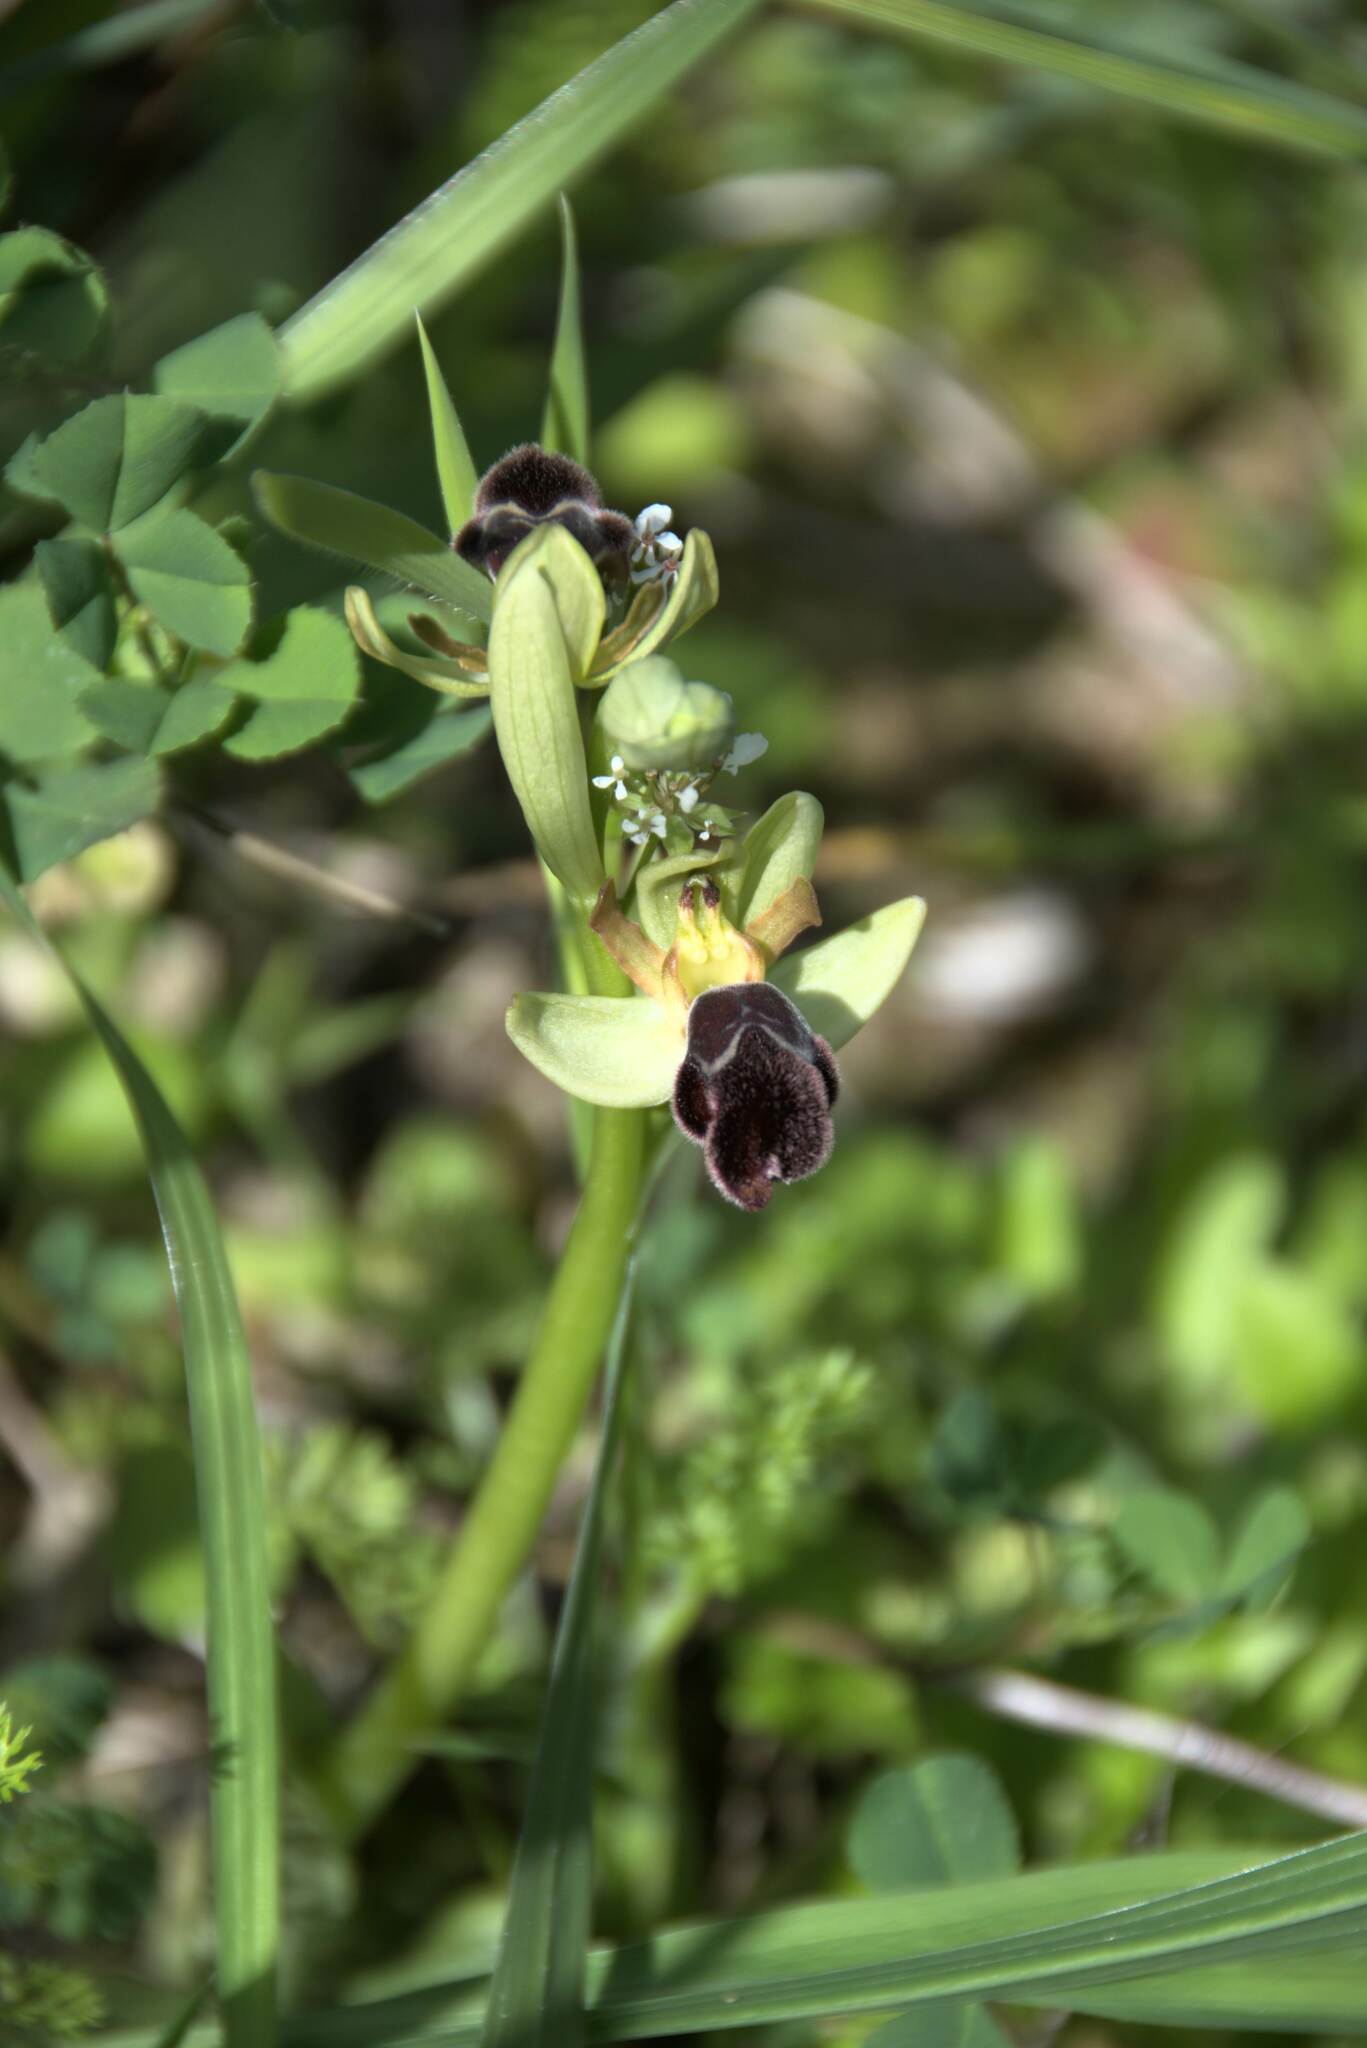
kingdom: Plantae
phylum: Tracheophyta
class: Liliopsida
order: Asparagales
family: Orchidaceae
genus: Ophrys
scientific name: Ophrys omegaifera
